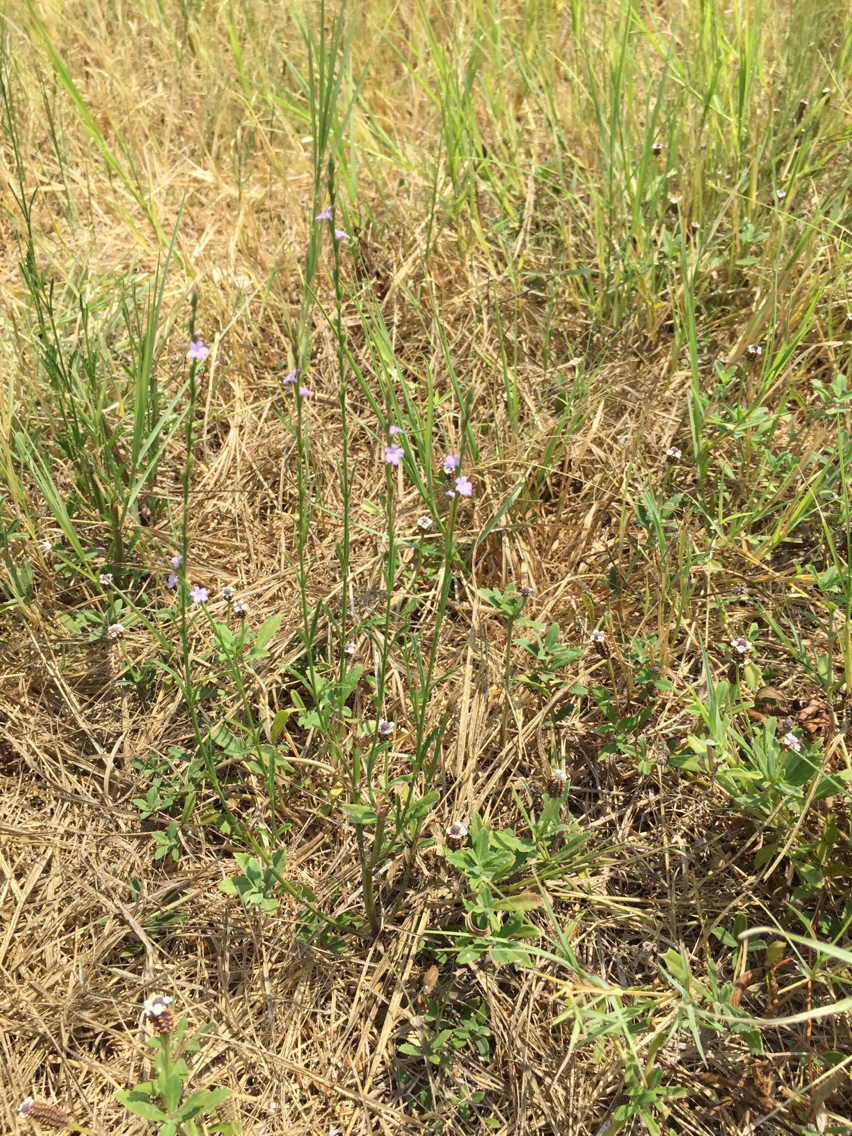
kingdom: Plantae
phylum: Tracheophyta
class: Magnoliopsida
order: Lamiales
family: Verbenaceae
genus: Verbena
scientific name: Verbena halei
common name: Texas vervain
